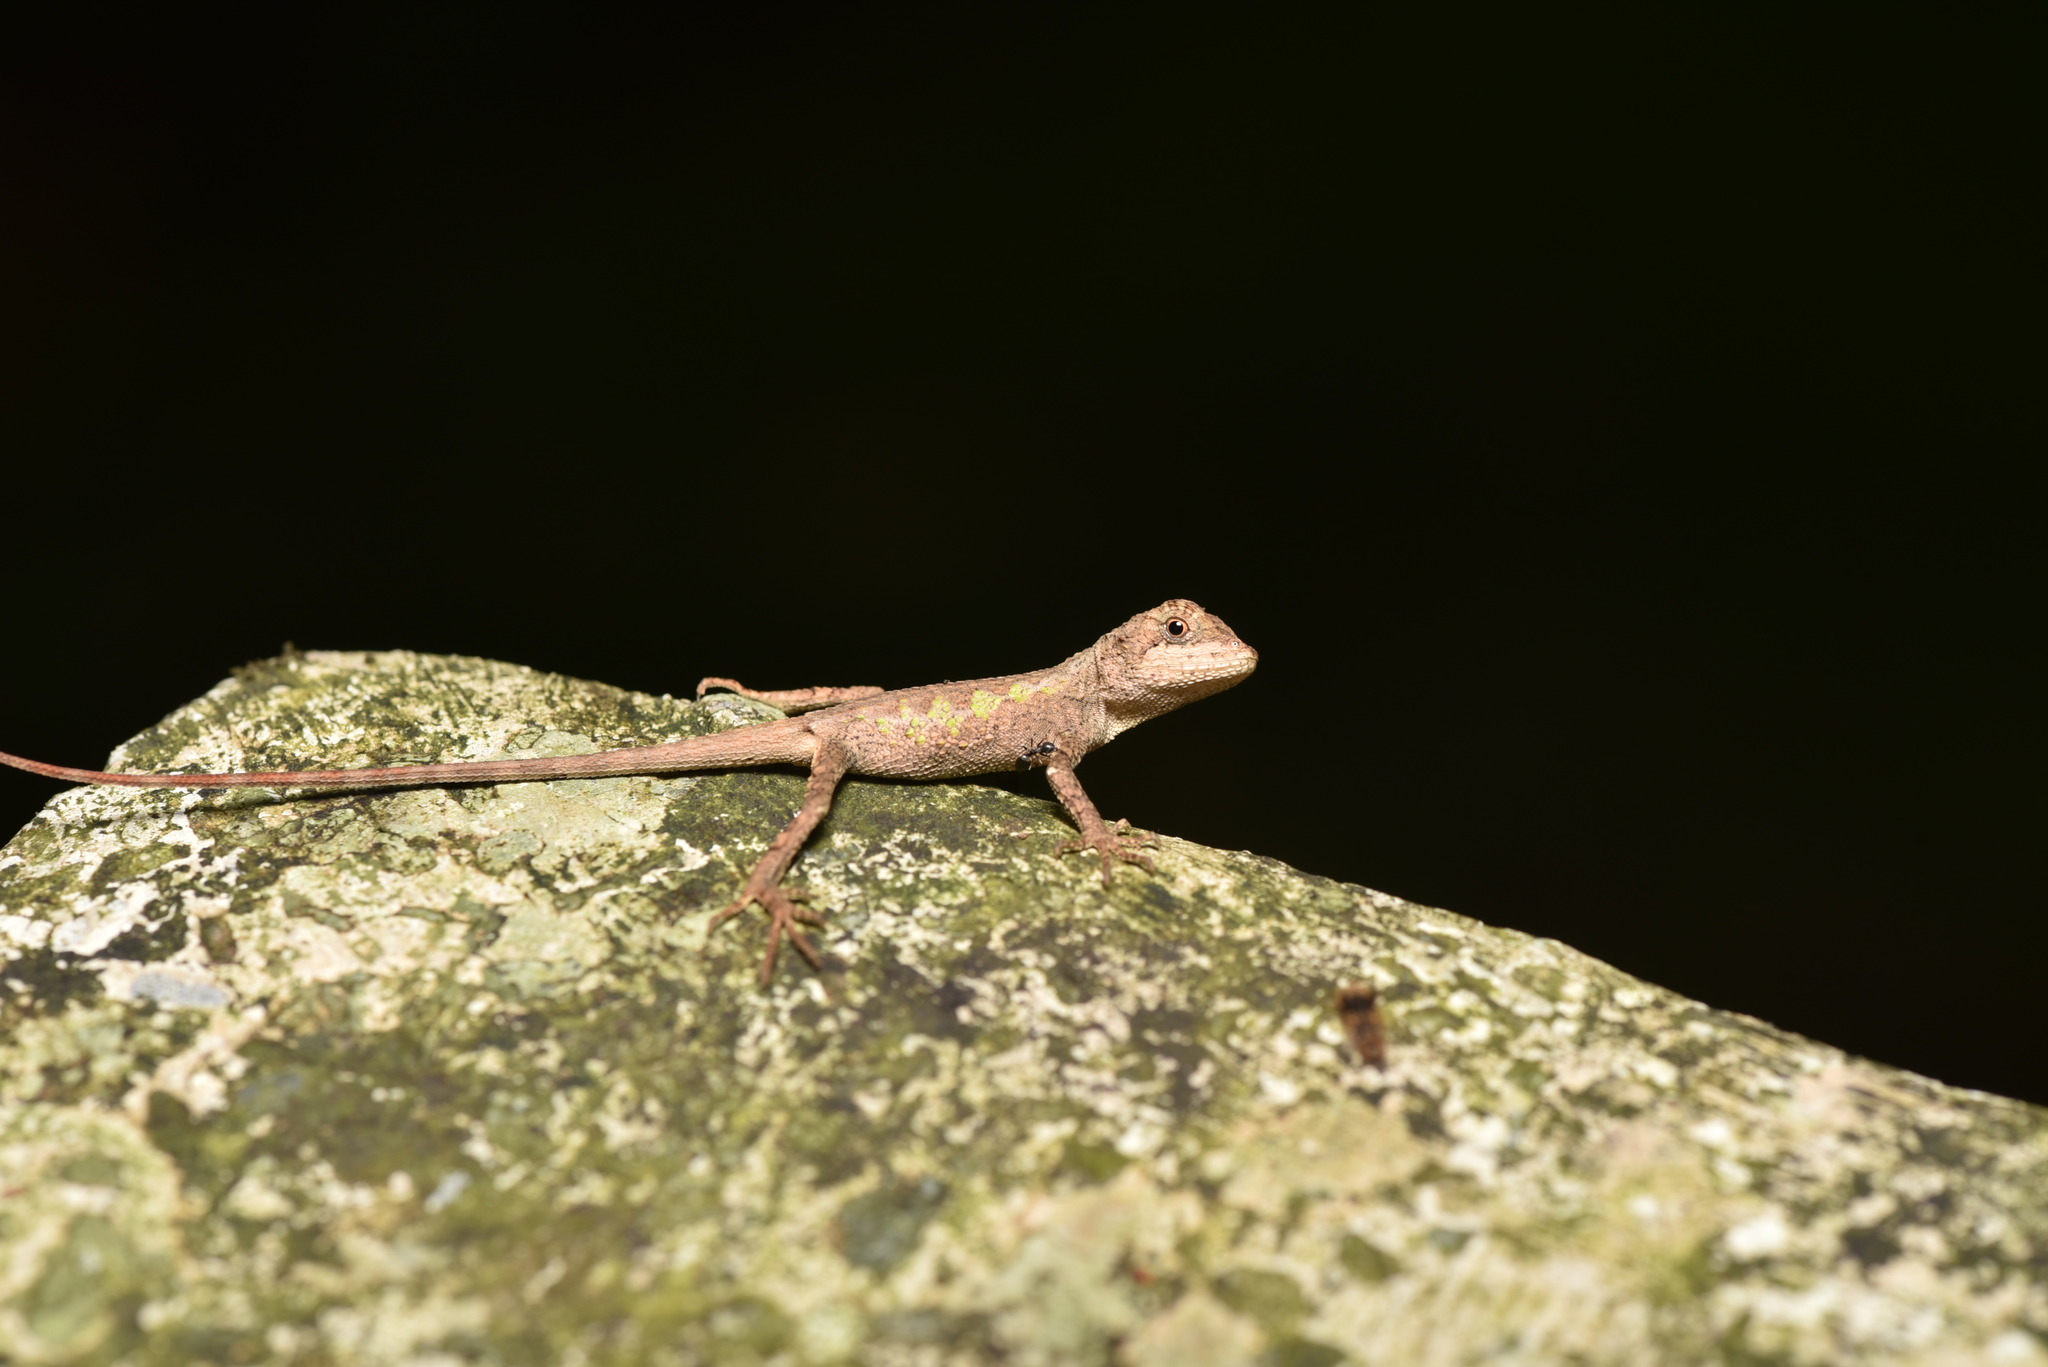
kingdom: Fungi
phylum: Basidiomycota
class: Agaricomycetes
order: Boletales
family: Diplocystidiaceae
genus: Diploderma
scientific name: Diploderma polygonatum
